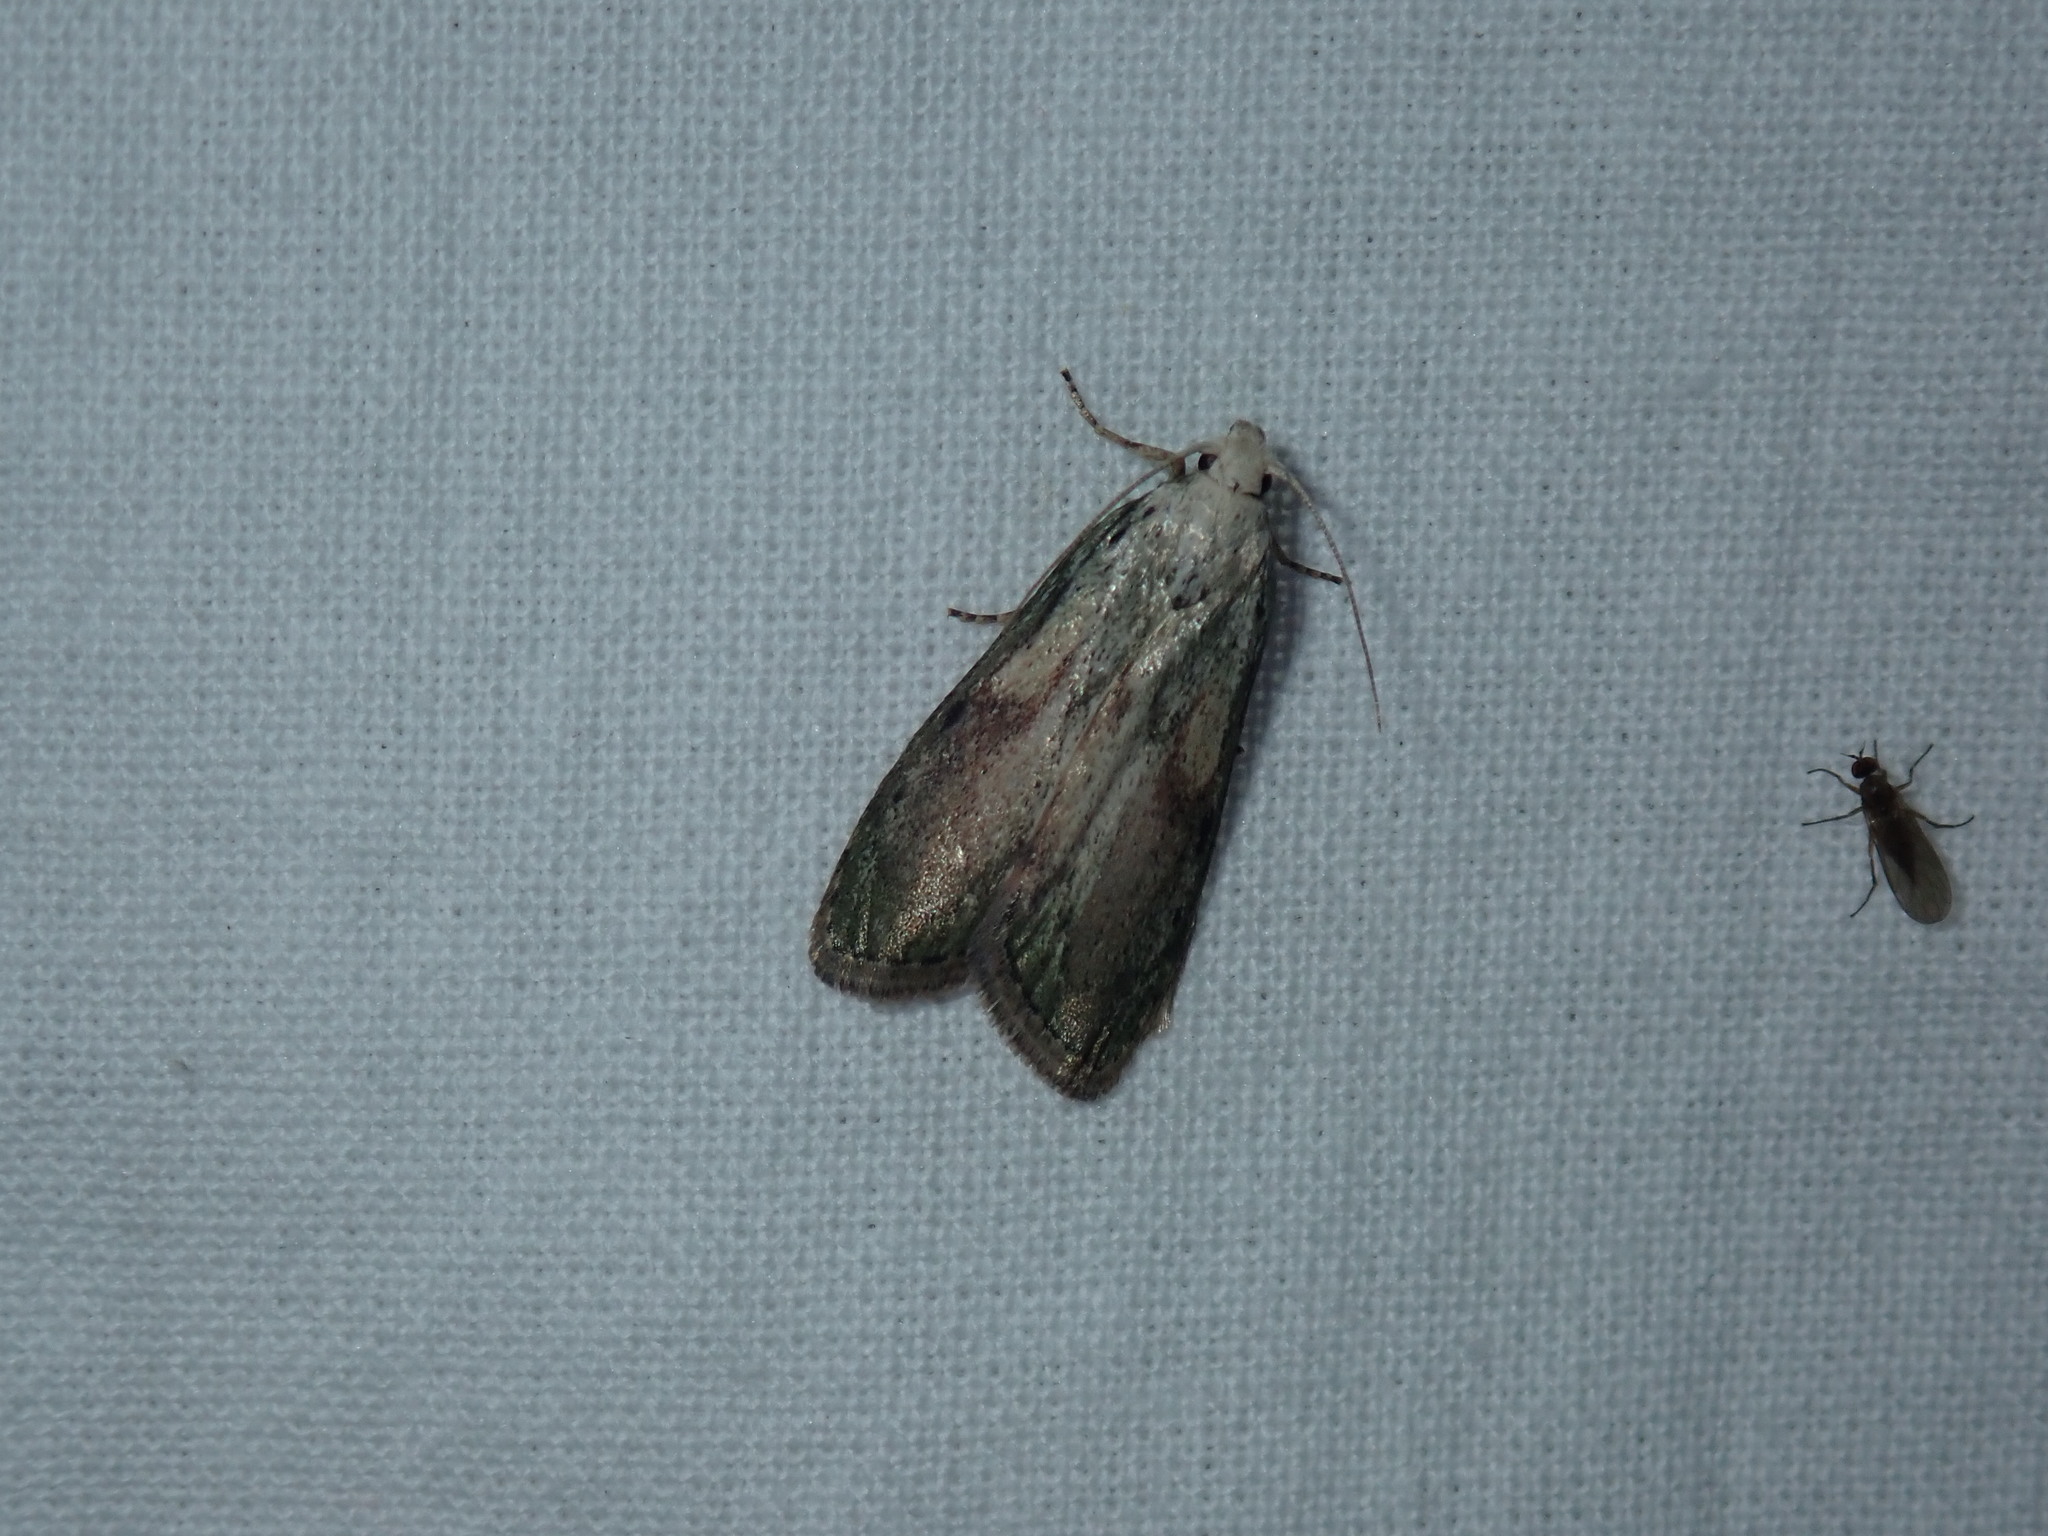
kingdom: Animalia
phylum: Arthropoda
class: Insecta
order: Lepidoptera
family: Pyralidae
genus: Aphomia
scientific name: Aphomia sociella
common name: Bee moth
